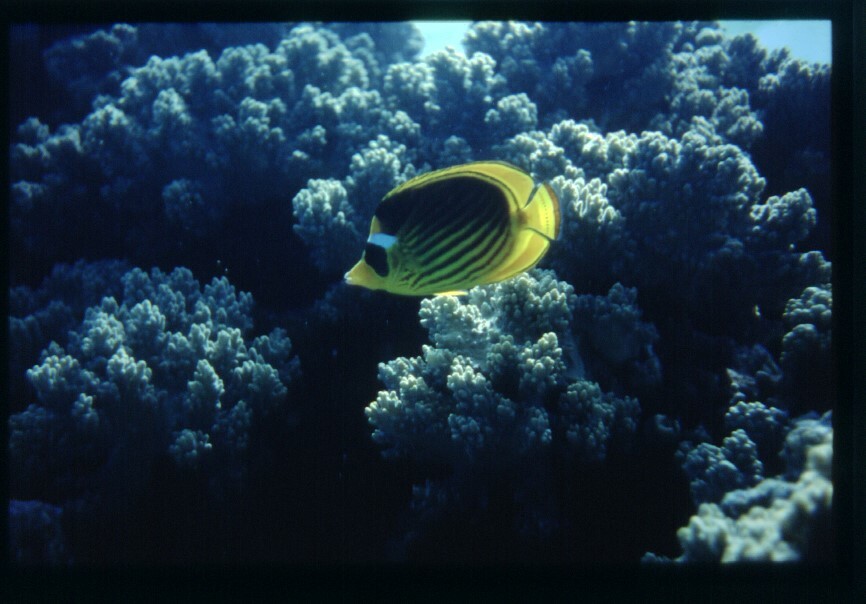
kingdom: Animalia
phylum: Chordata
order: Perciformes
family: Chaetodontidae
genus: Chaetodon
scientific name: Chaetodon fasciatus
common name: Diagonal butterflyfish
